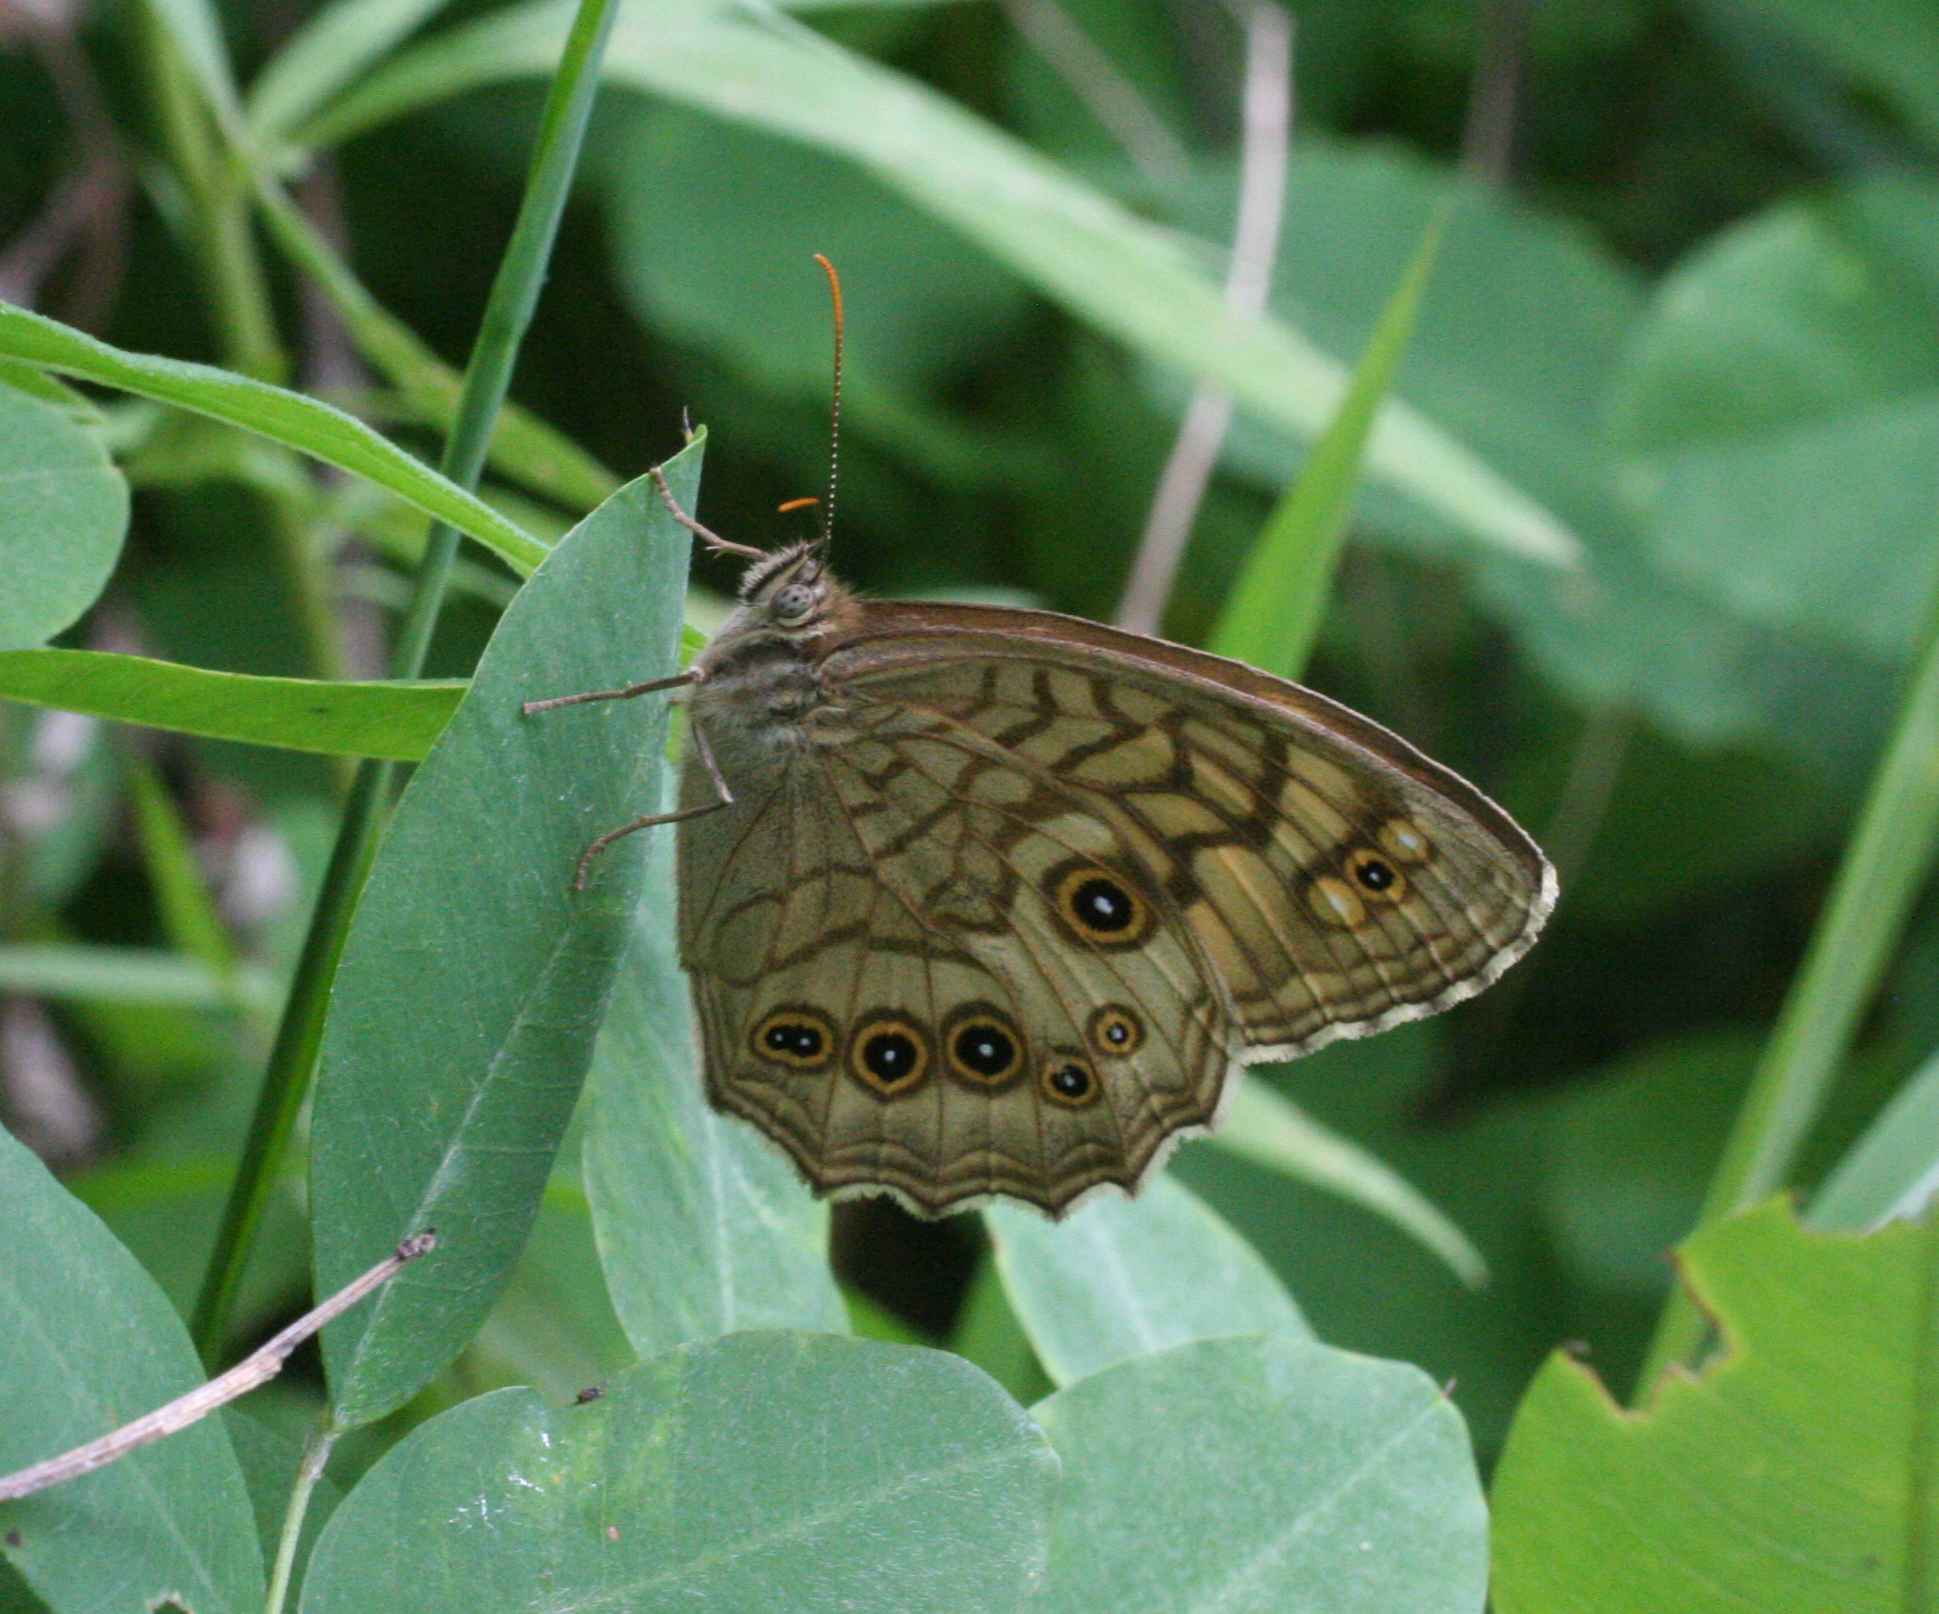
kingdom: Animalia
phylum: Arthropoda
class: Insecta
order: Lepidoptera
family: Nymphalidae
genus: Kirinia
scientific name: Kirinia
